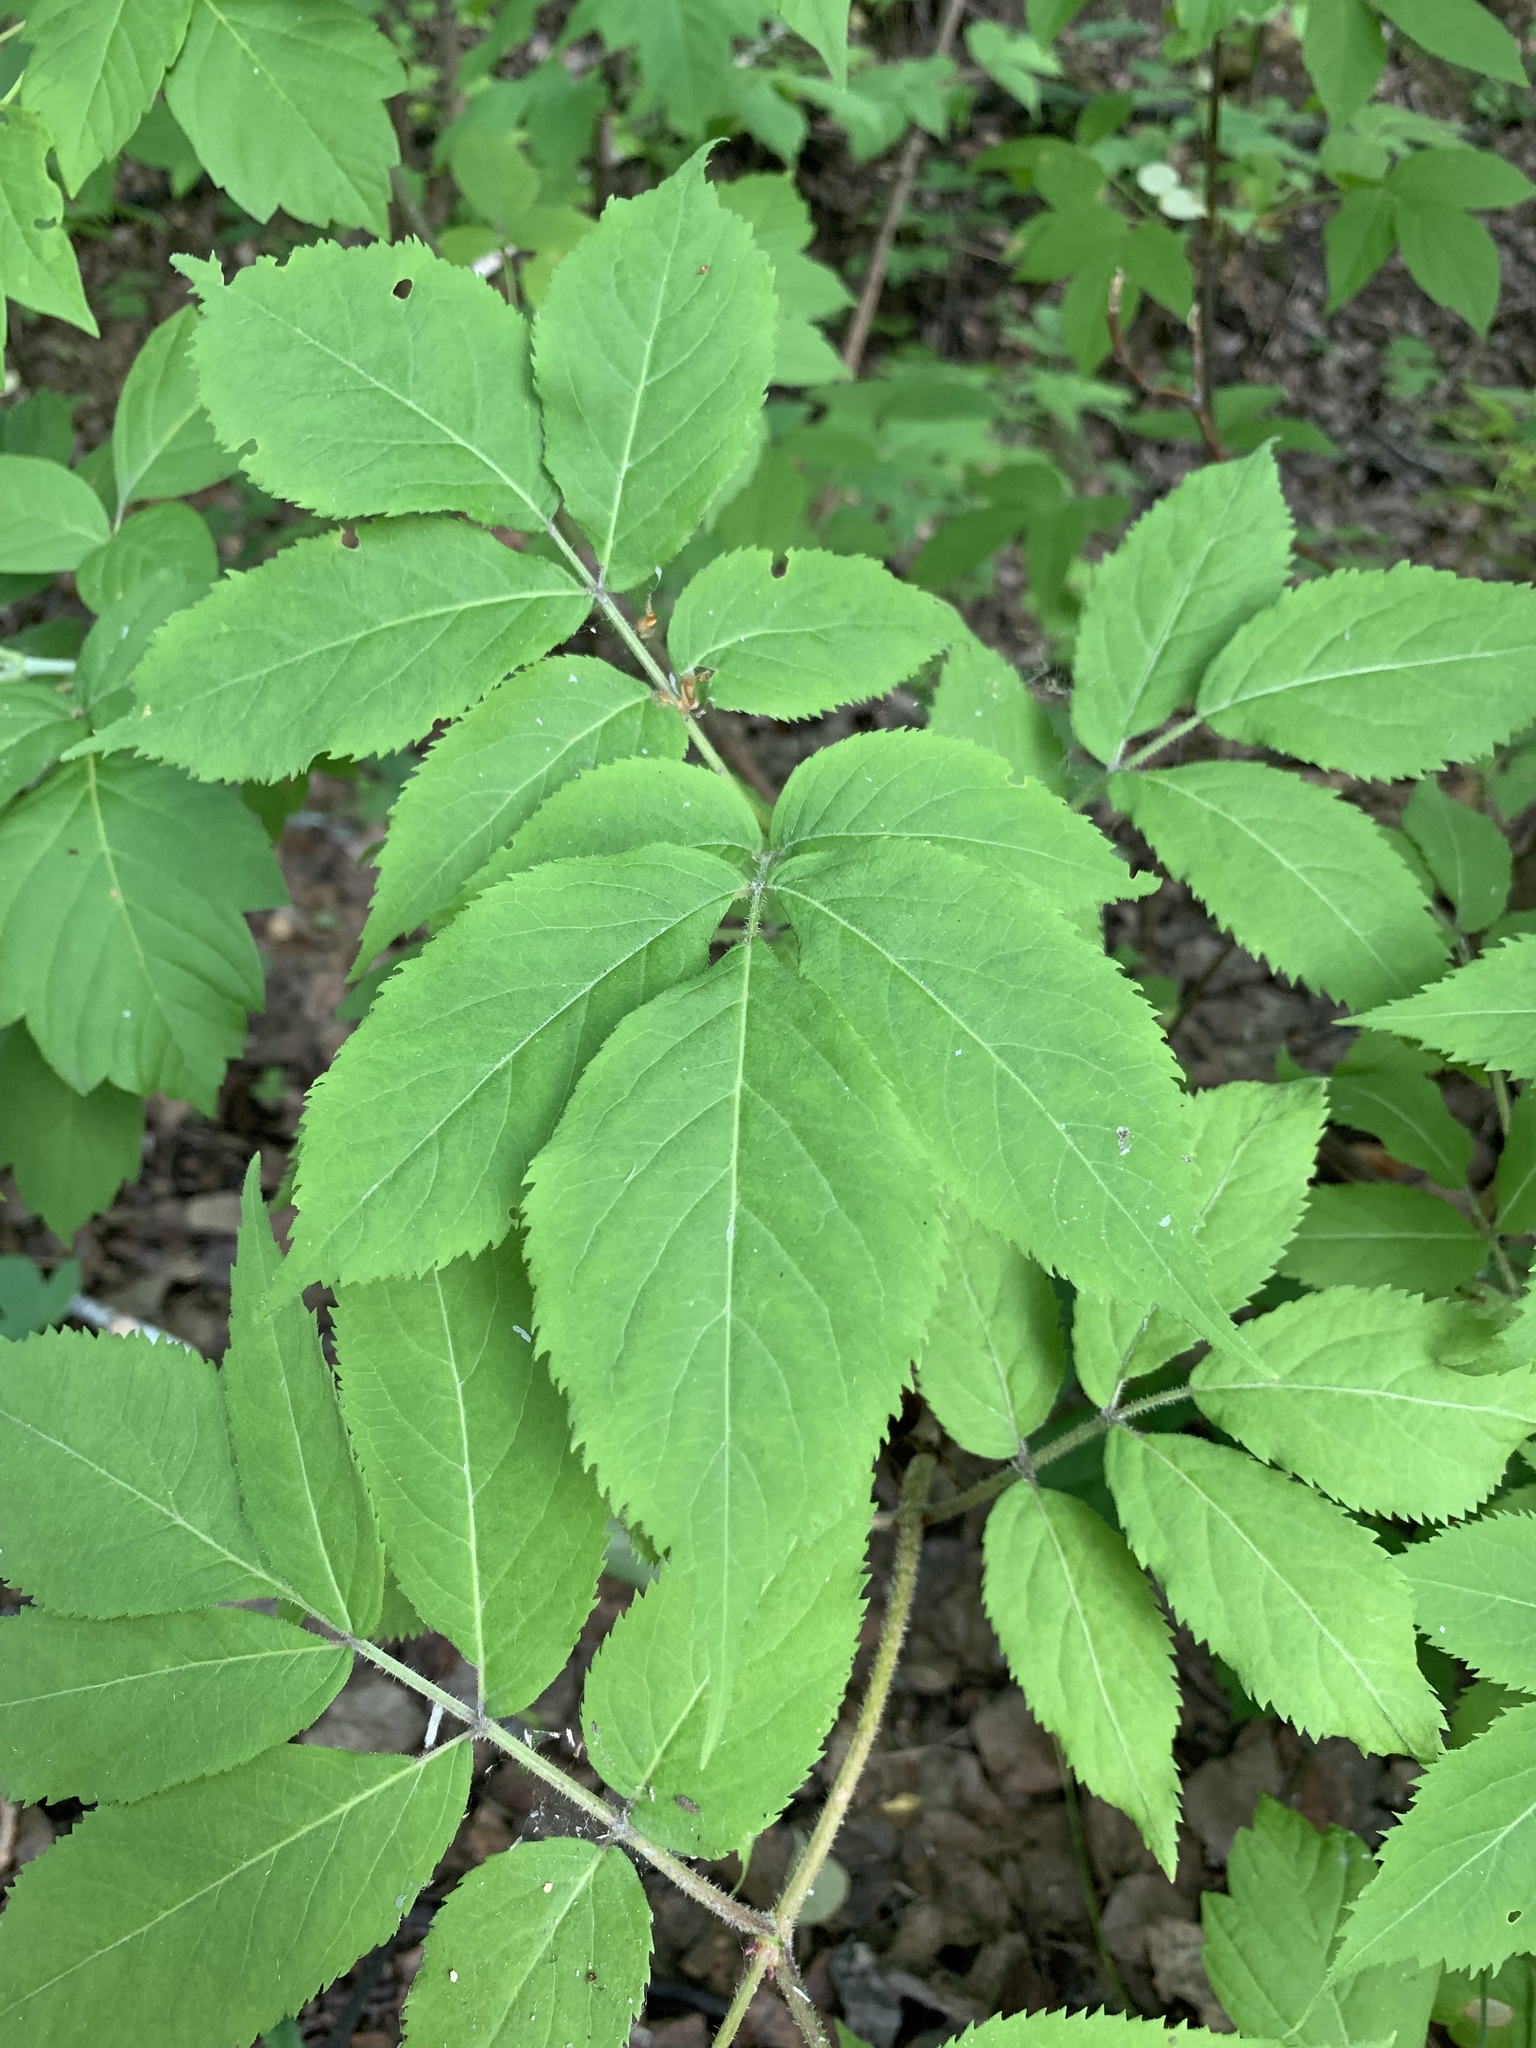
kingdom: Plantae
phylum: Tracheophyta
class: Magnoliopsida
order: Dipsacales
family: Viburnaceae
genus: Sambucus
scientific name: Sambucus sibirica
